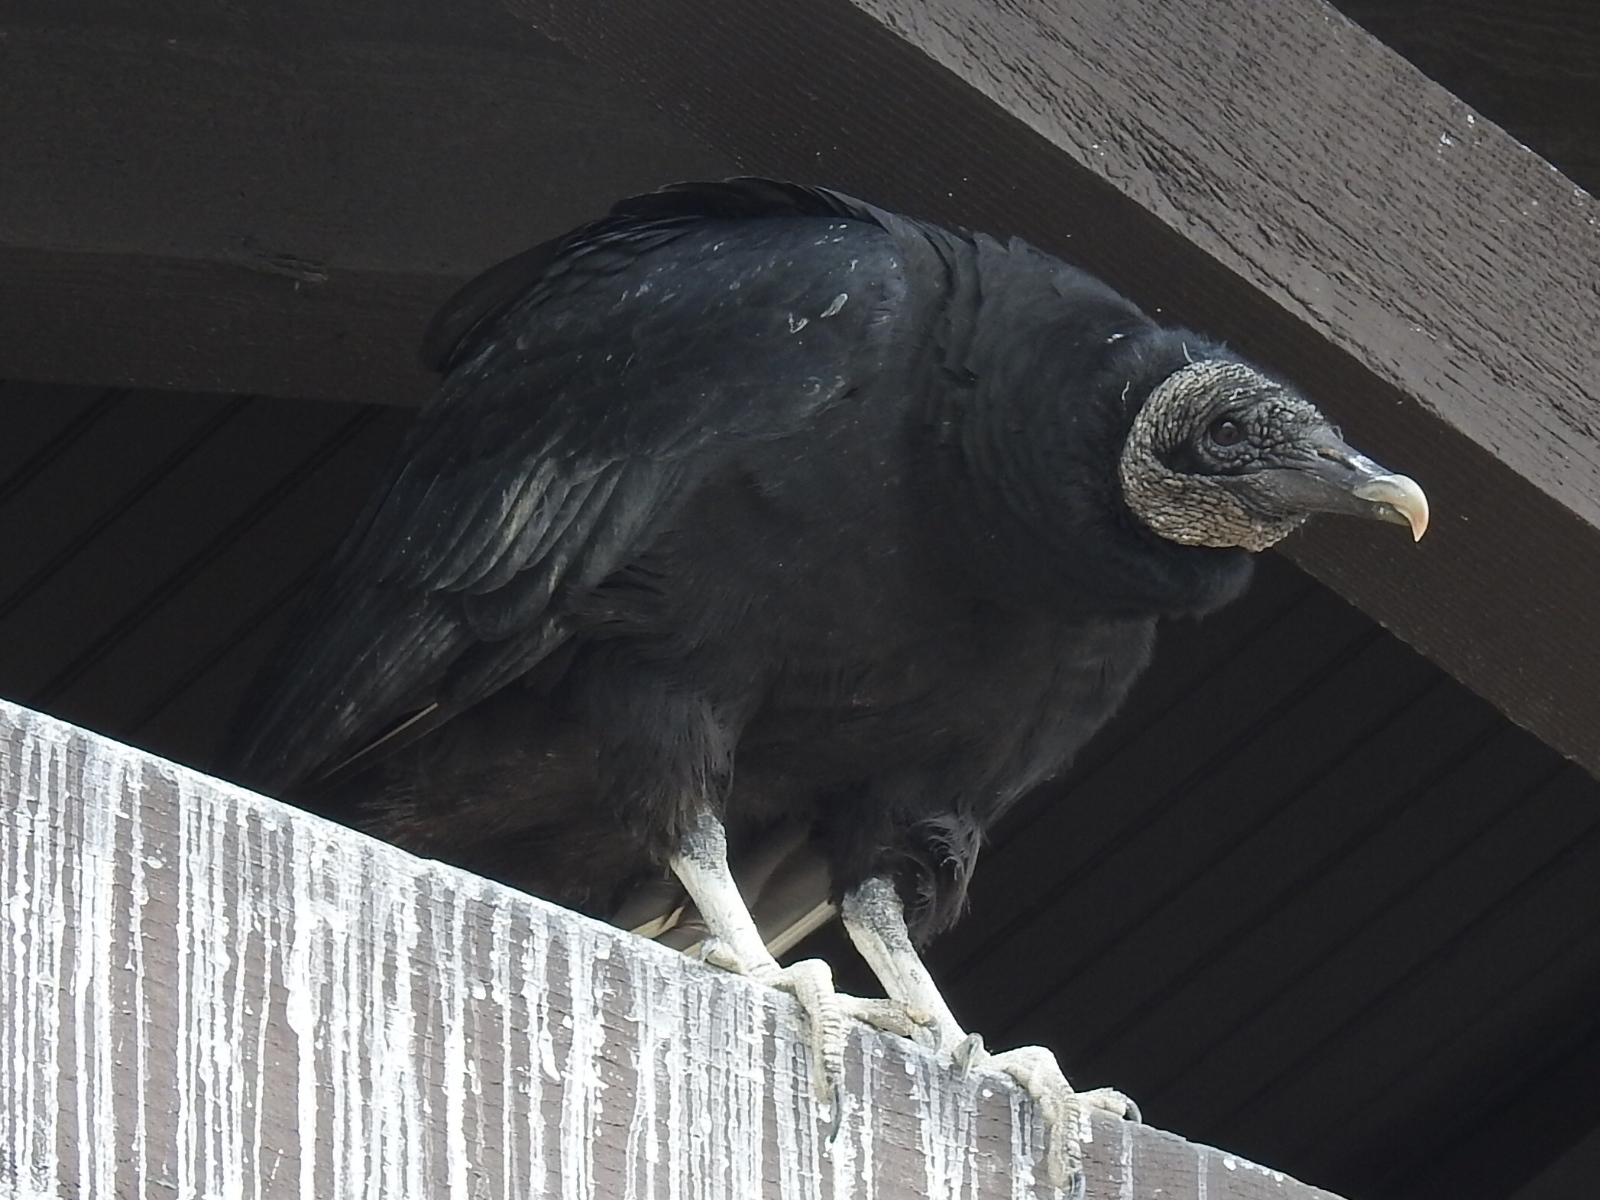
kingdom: Animalia
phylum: Chordata
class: Aves
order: Accipitriformes
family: Cathartidae
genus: Coragyps
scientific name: Coragyps atratus
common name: Black vulture
